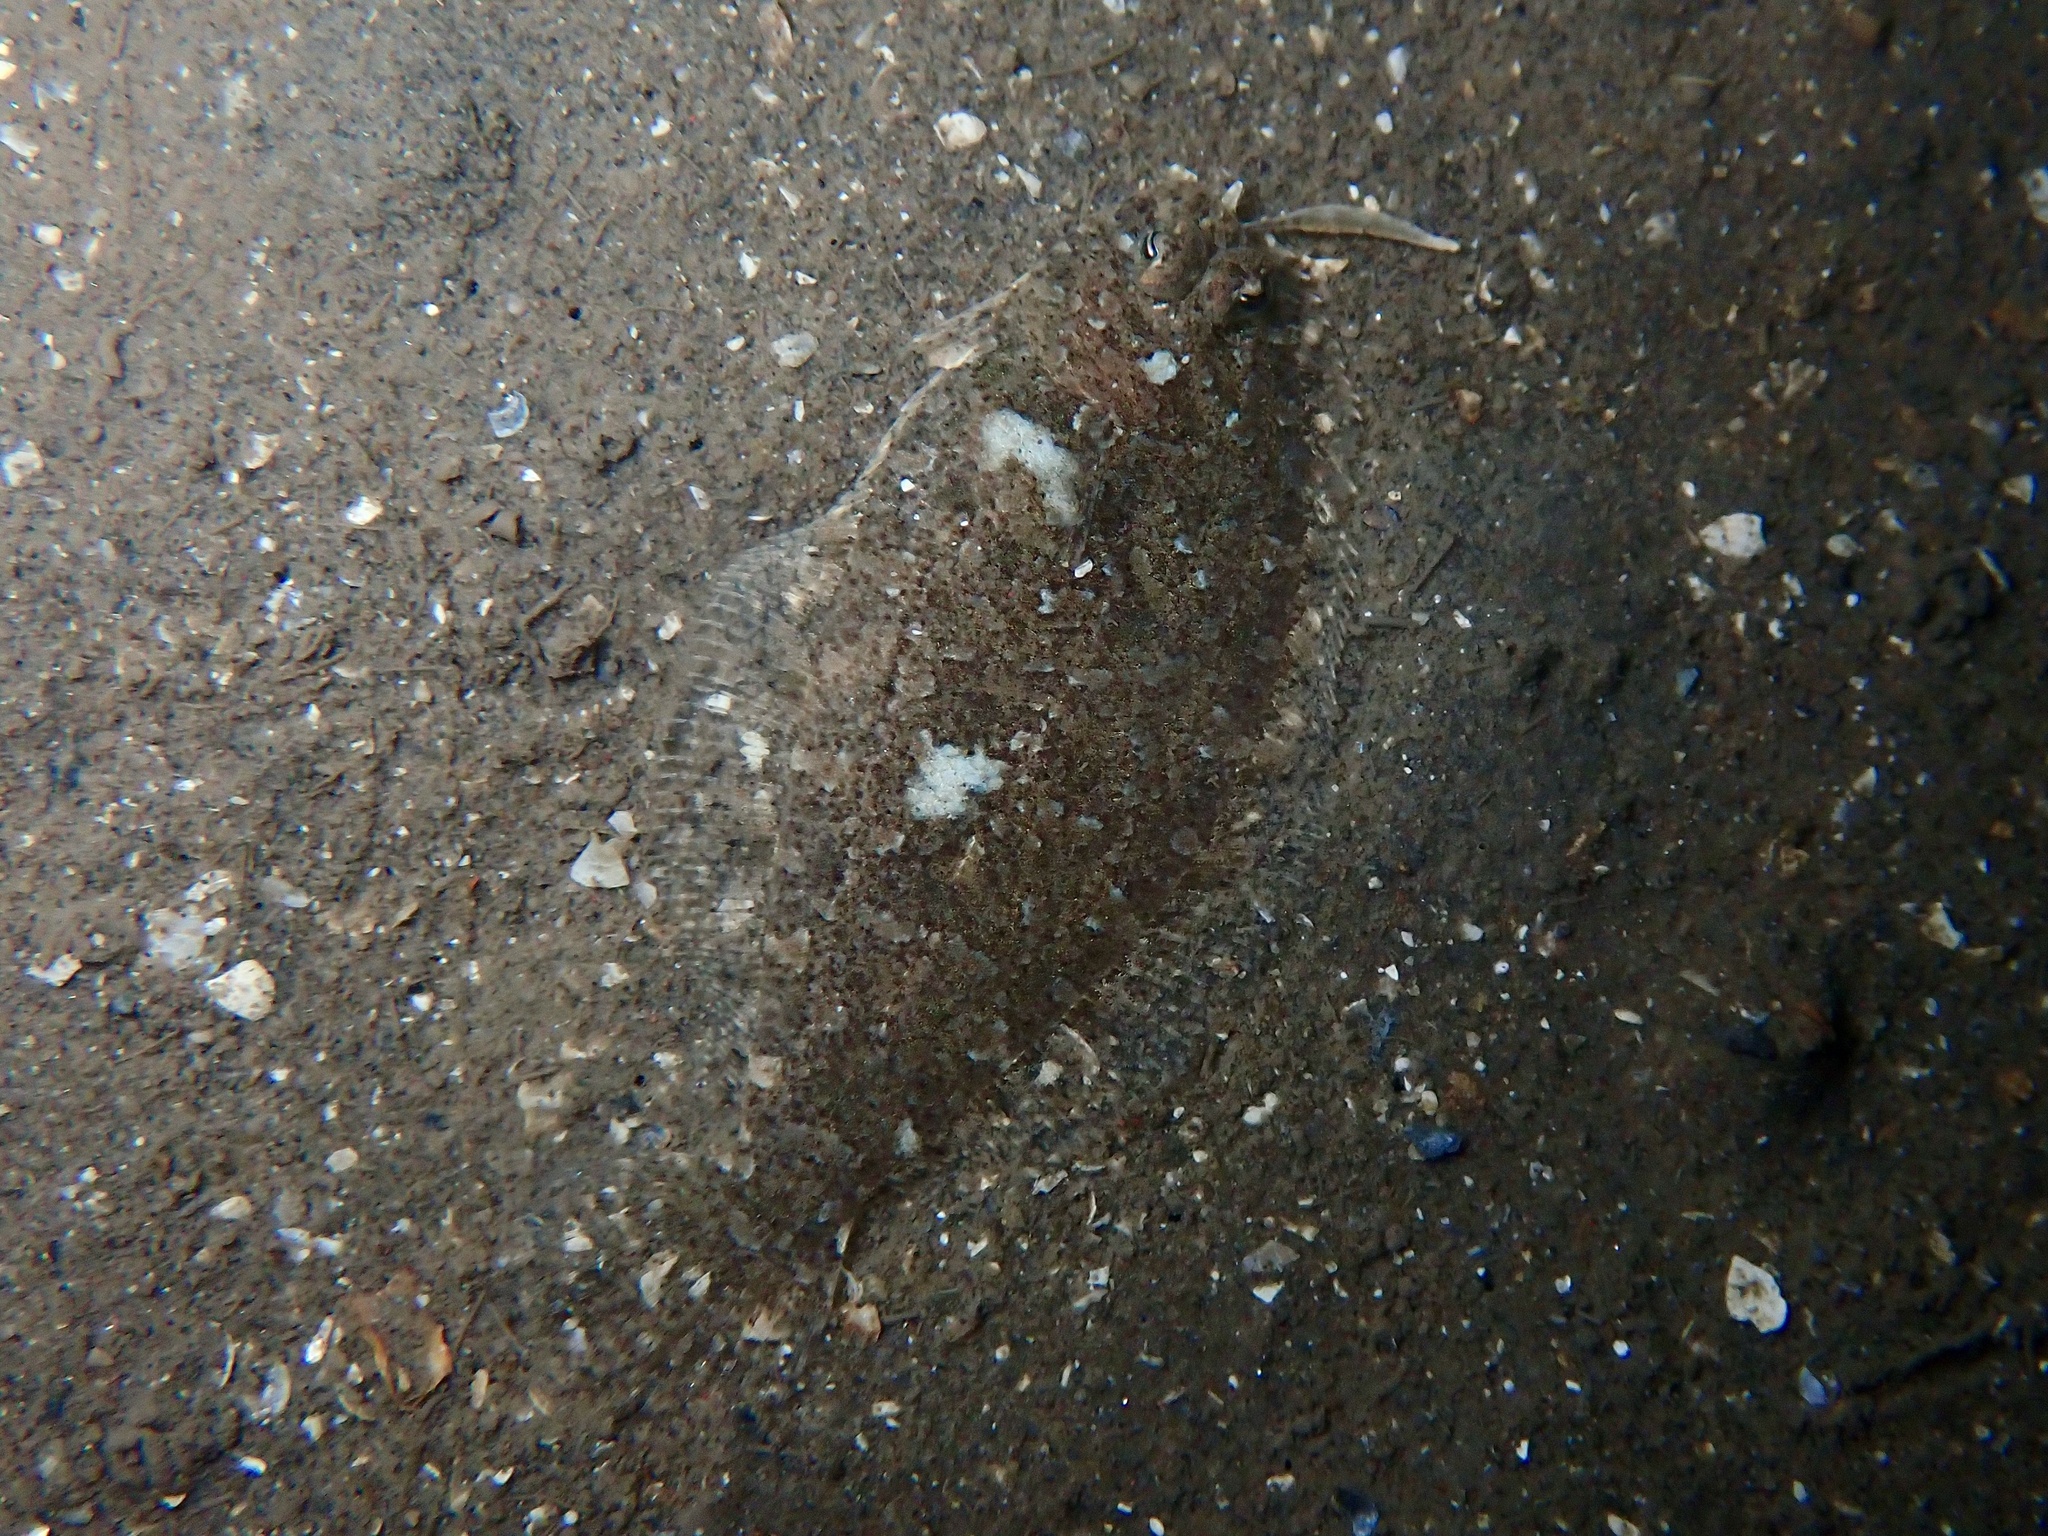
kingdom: Animalia
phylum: Chordata
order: Pleuronectiformes
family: Bothidae
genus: Arnoglossus
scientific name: Arnoglossus thori
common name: Thor's scaldfish
